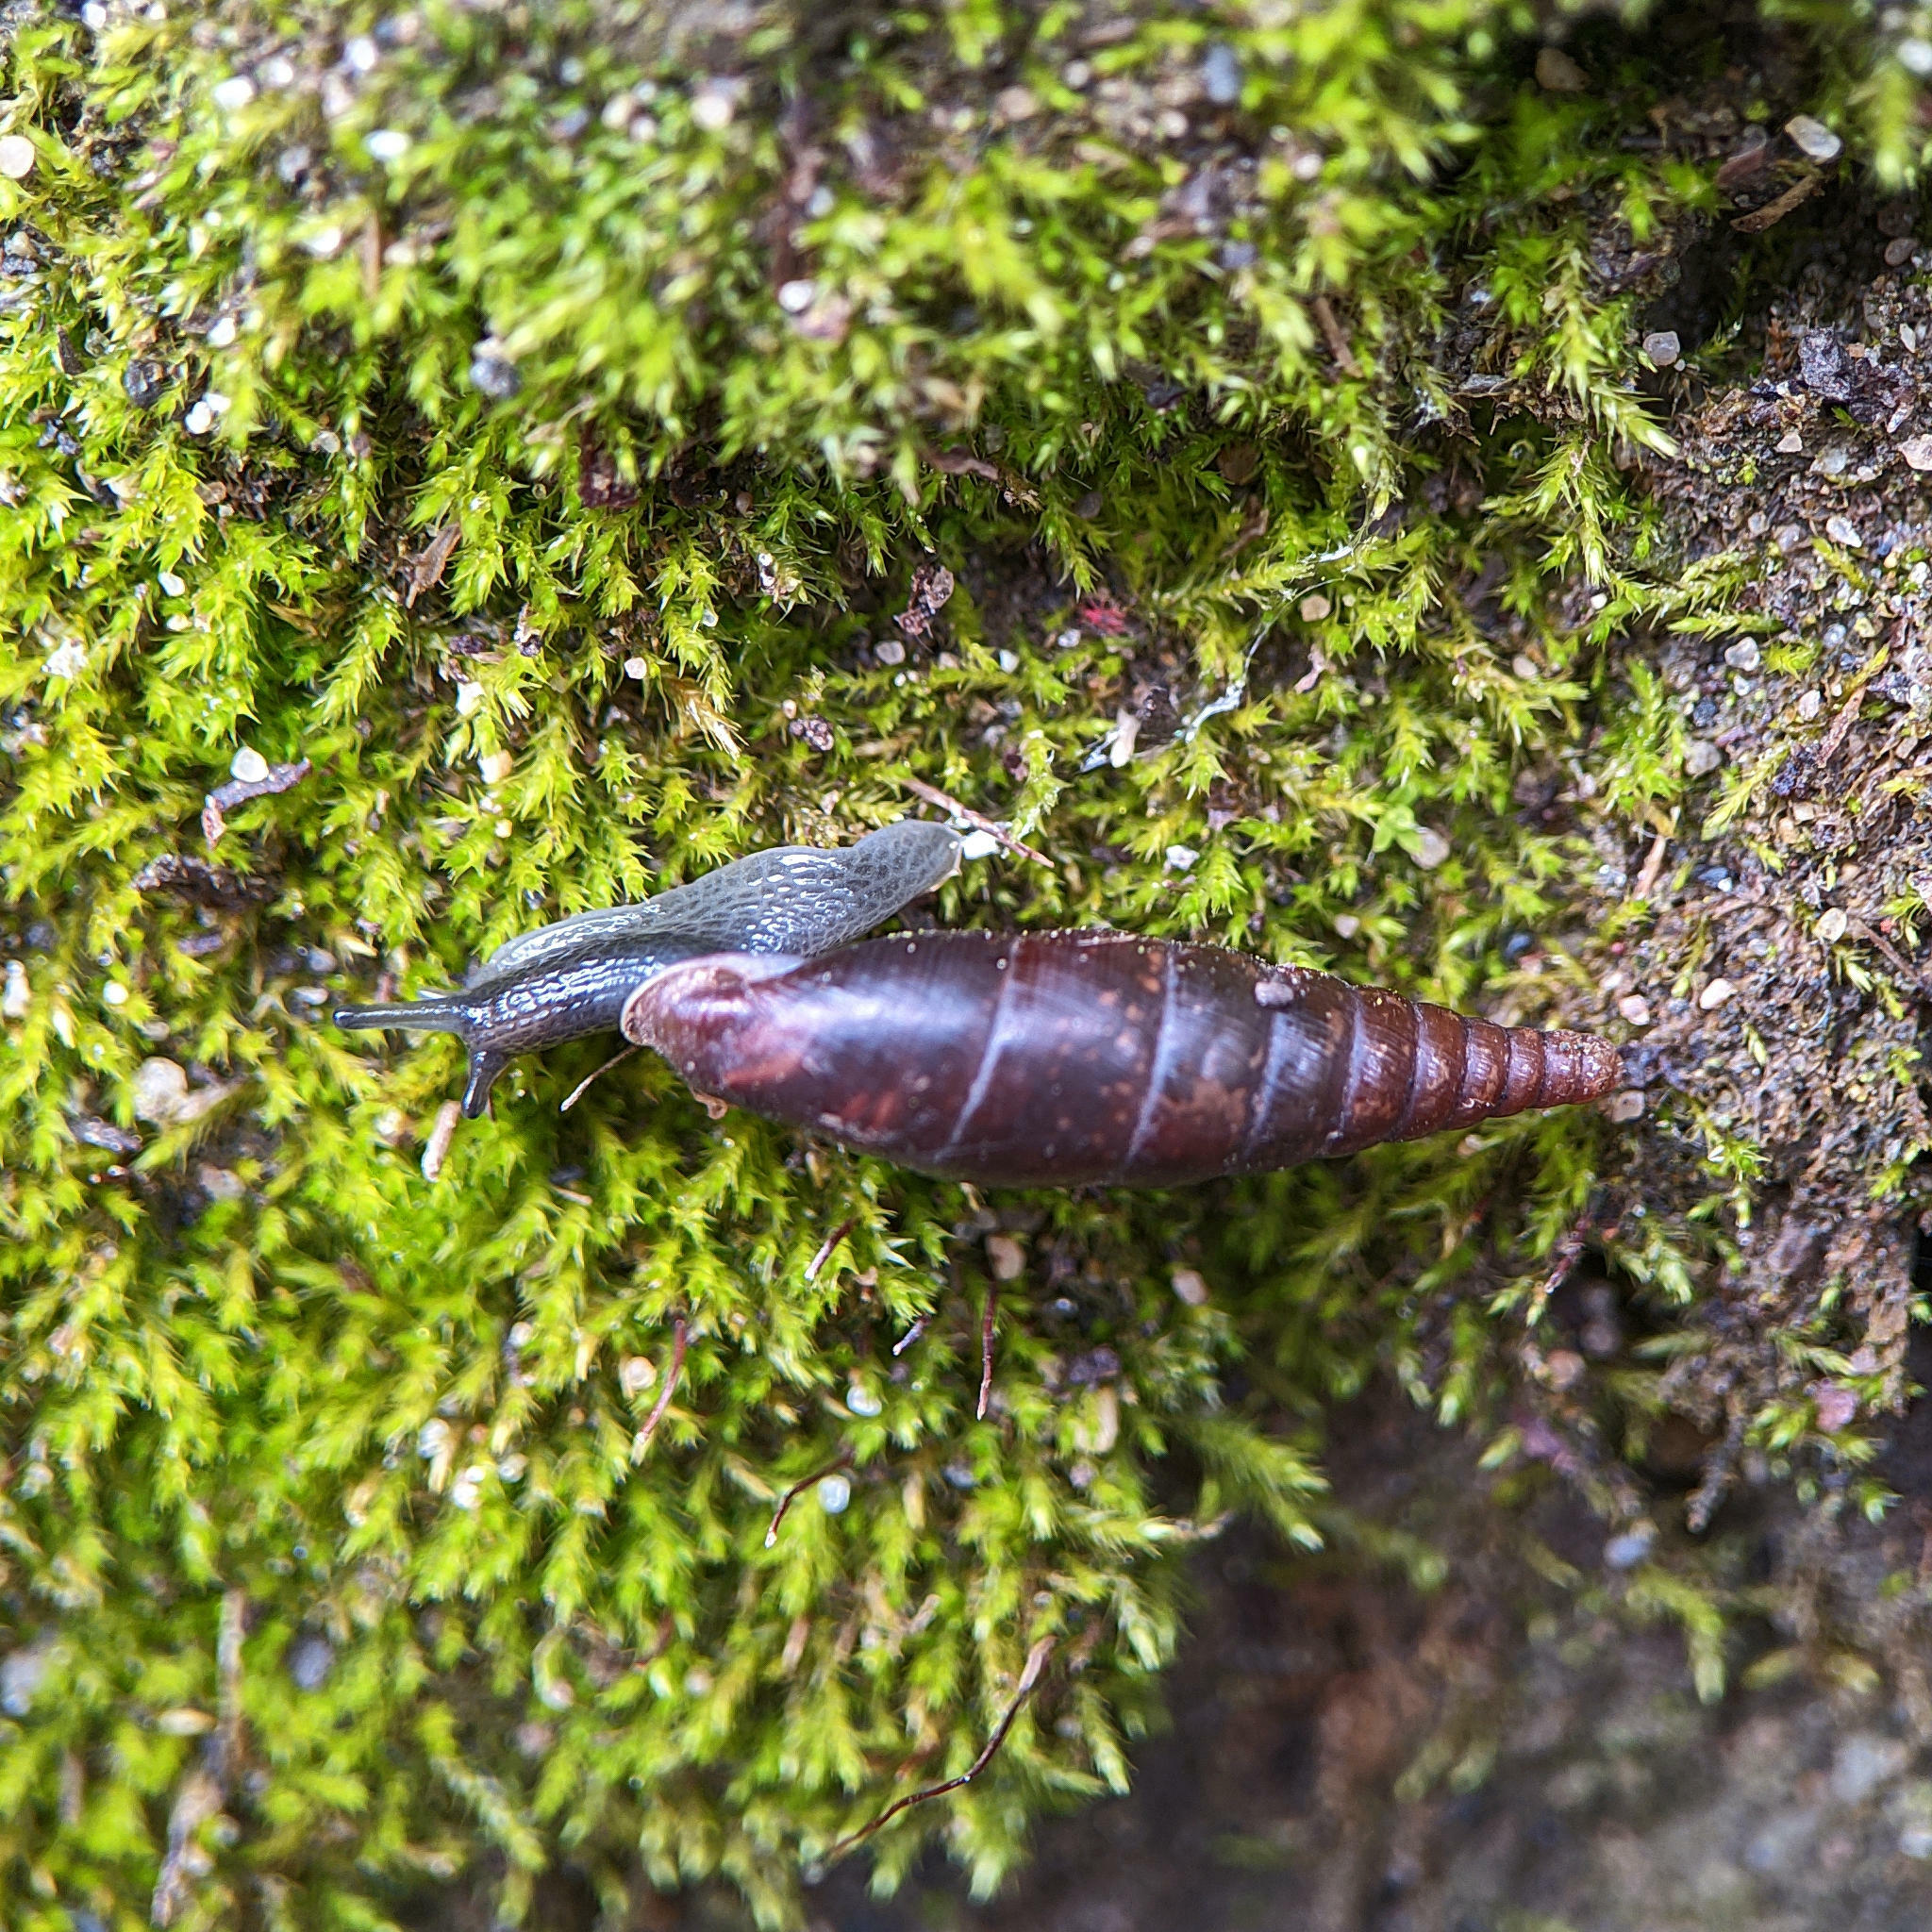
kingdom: Animalia
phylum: Mollusca
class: Gastropoda
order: Stylommatophora
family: Clausiliidae
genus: Cochlodina
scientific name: Cochlodina laminata
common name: Plaited door snail
